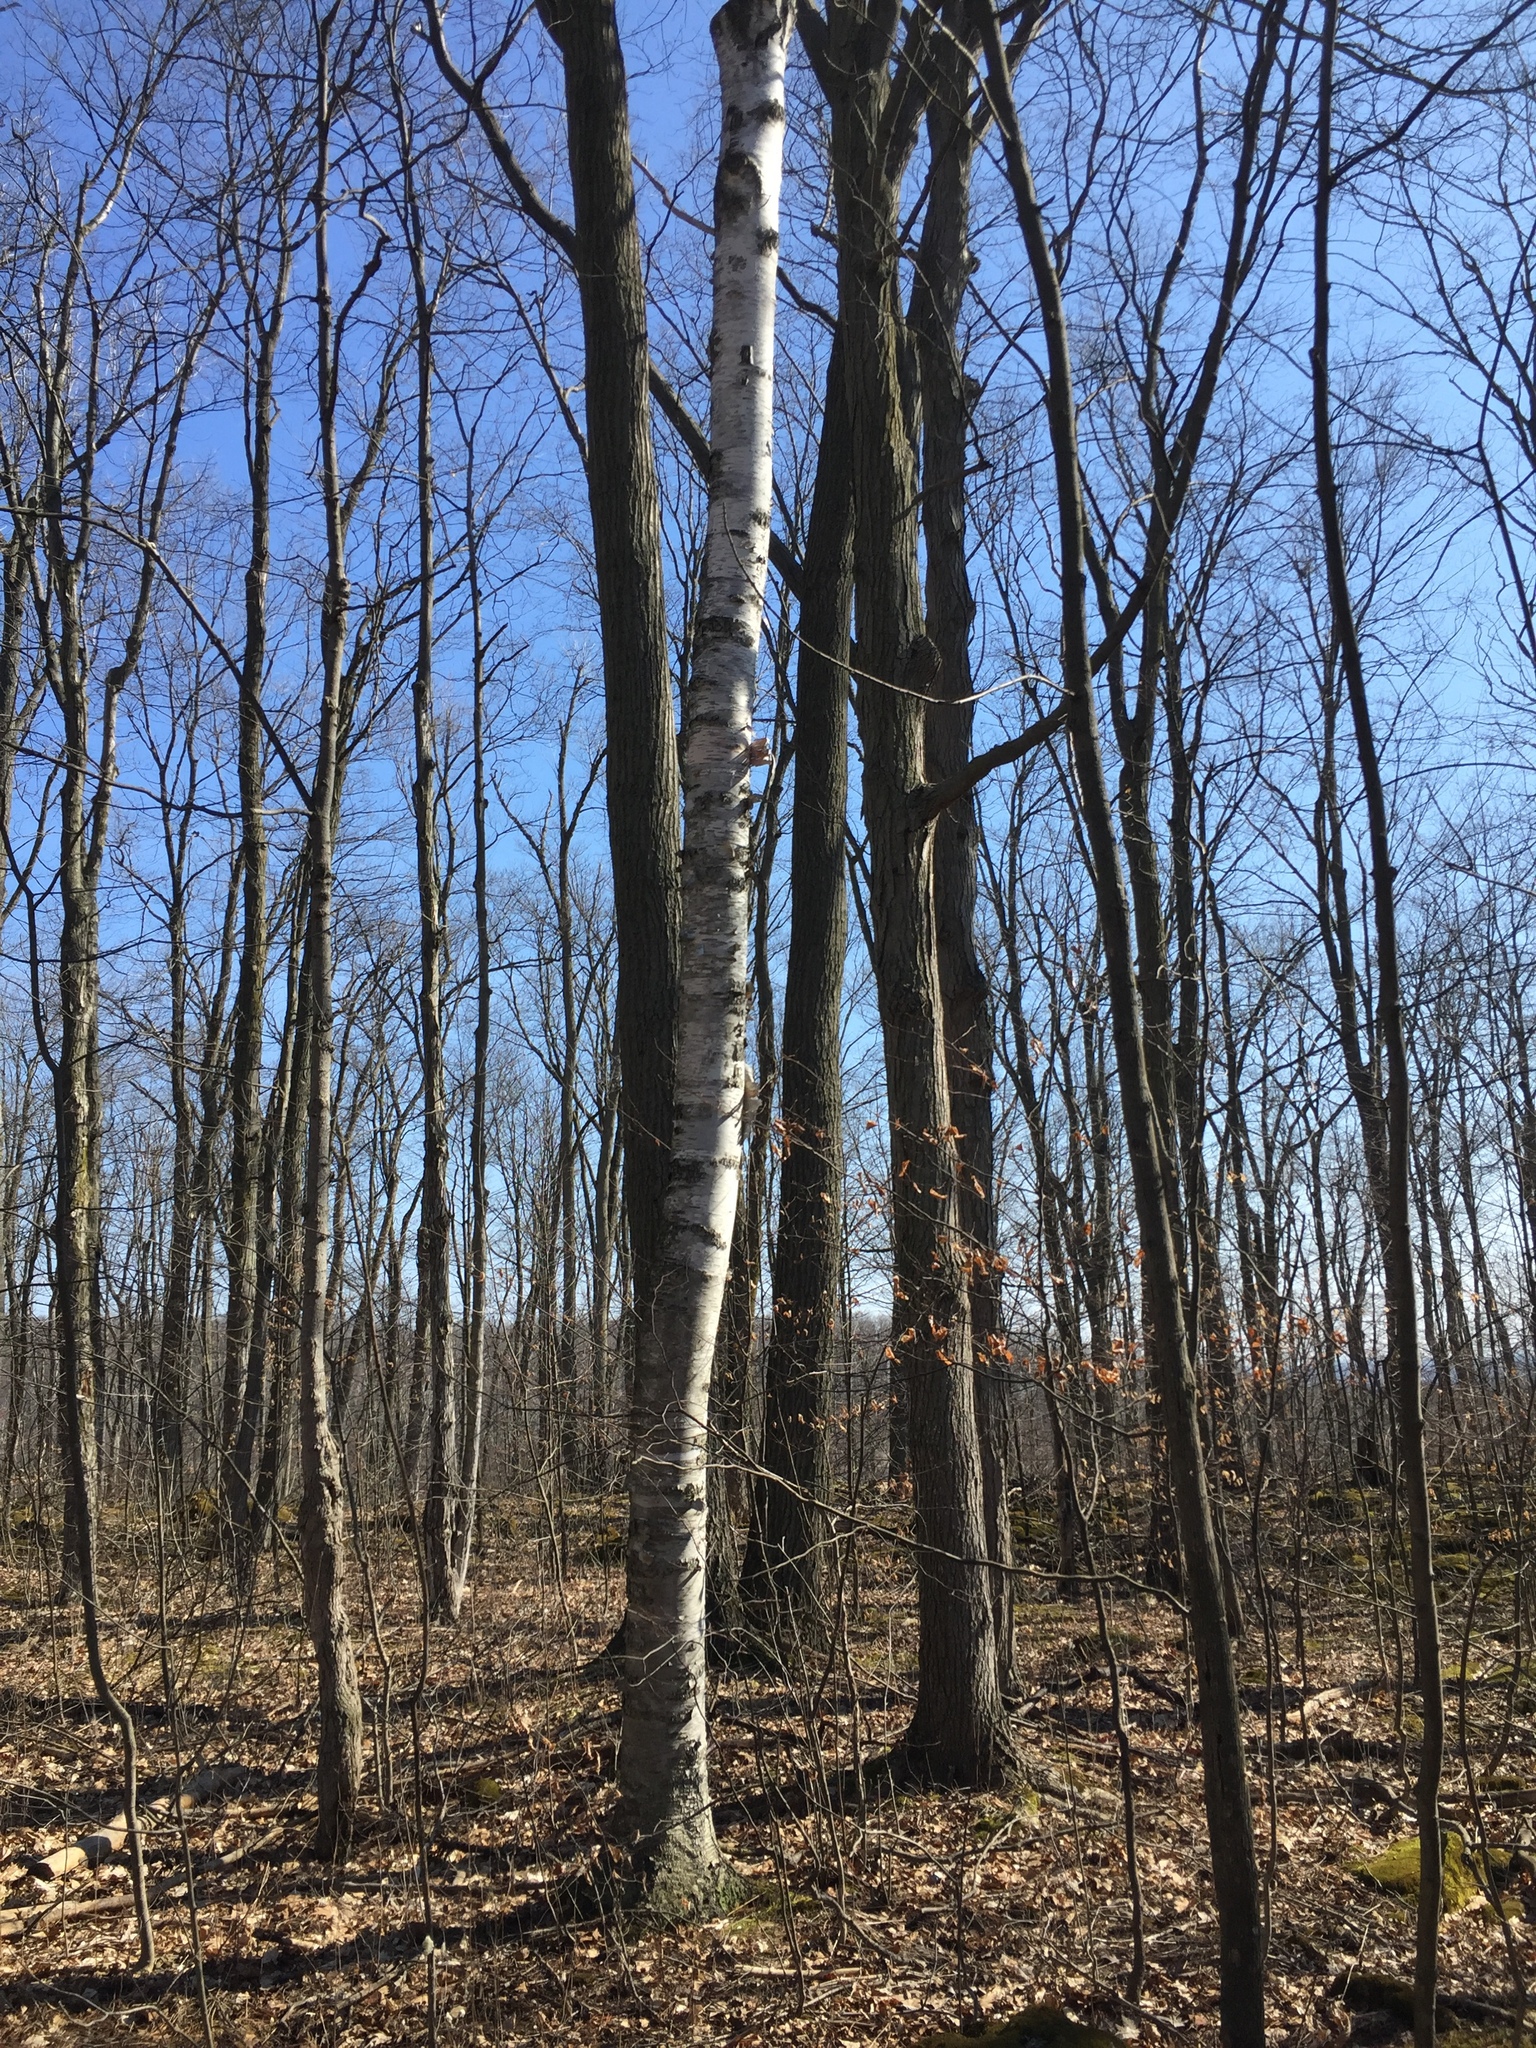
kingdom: Plantae
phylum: Tracheophyta
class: Magnoliopsida
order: Fagales
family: Betulaceae
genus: Betula
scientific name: Betula papyrifera
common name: Paper birch
